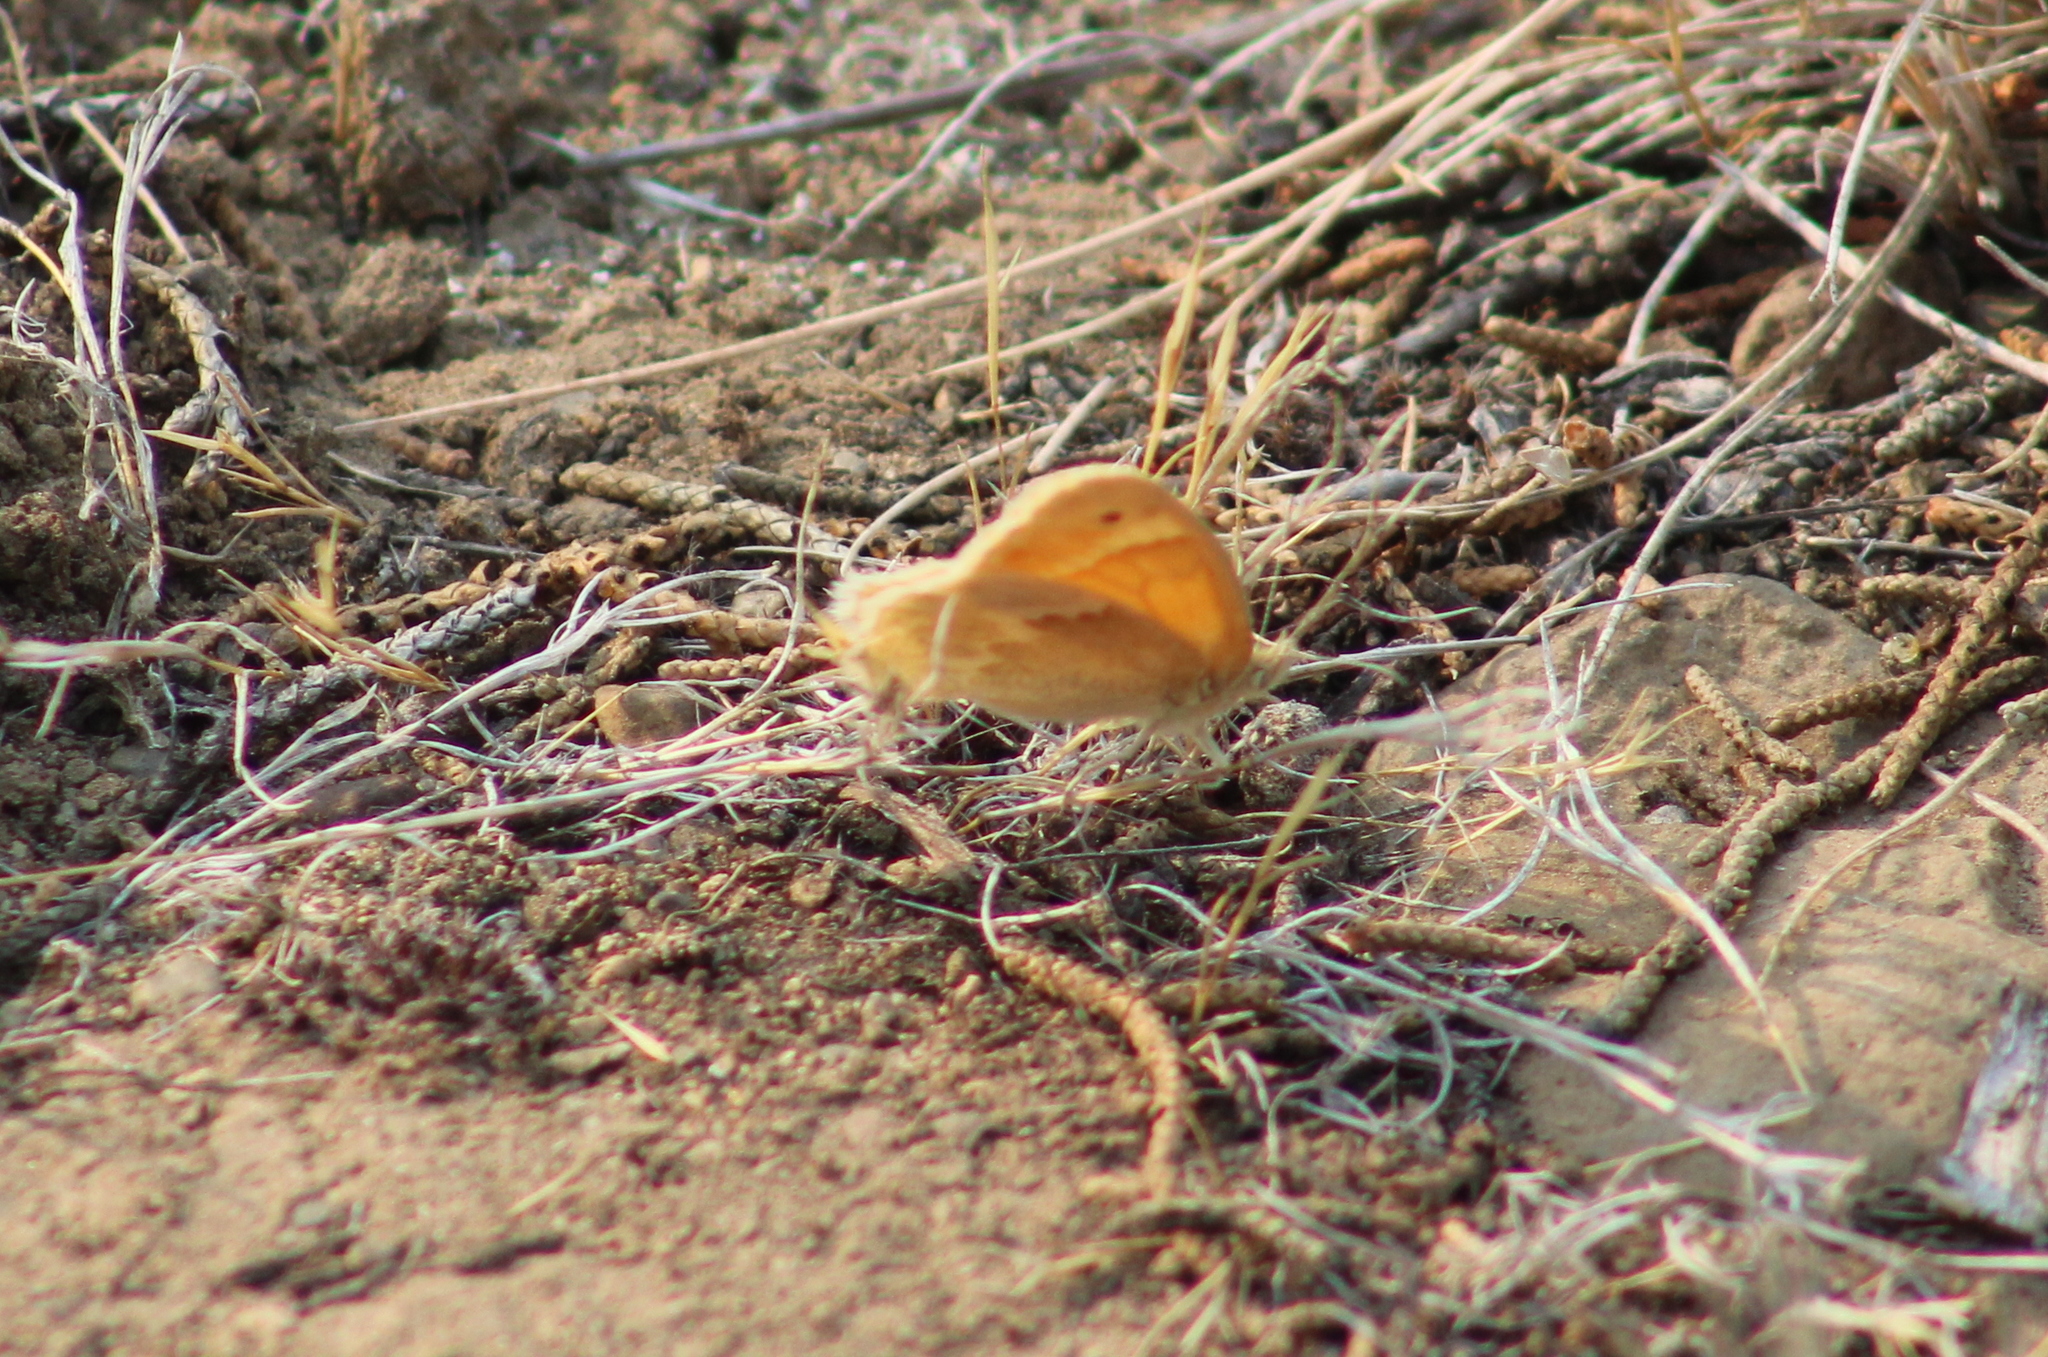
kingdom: Animalia
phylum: Arthropoda
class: Insecta
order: Lepidoptera
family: Nymphalidae
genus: Coenonympha
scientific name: Coenonympha california
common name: Common ringlet
